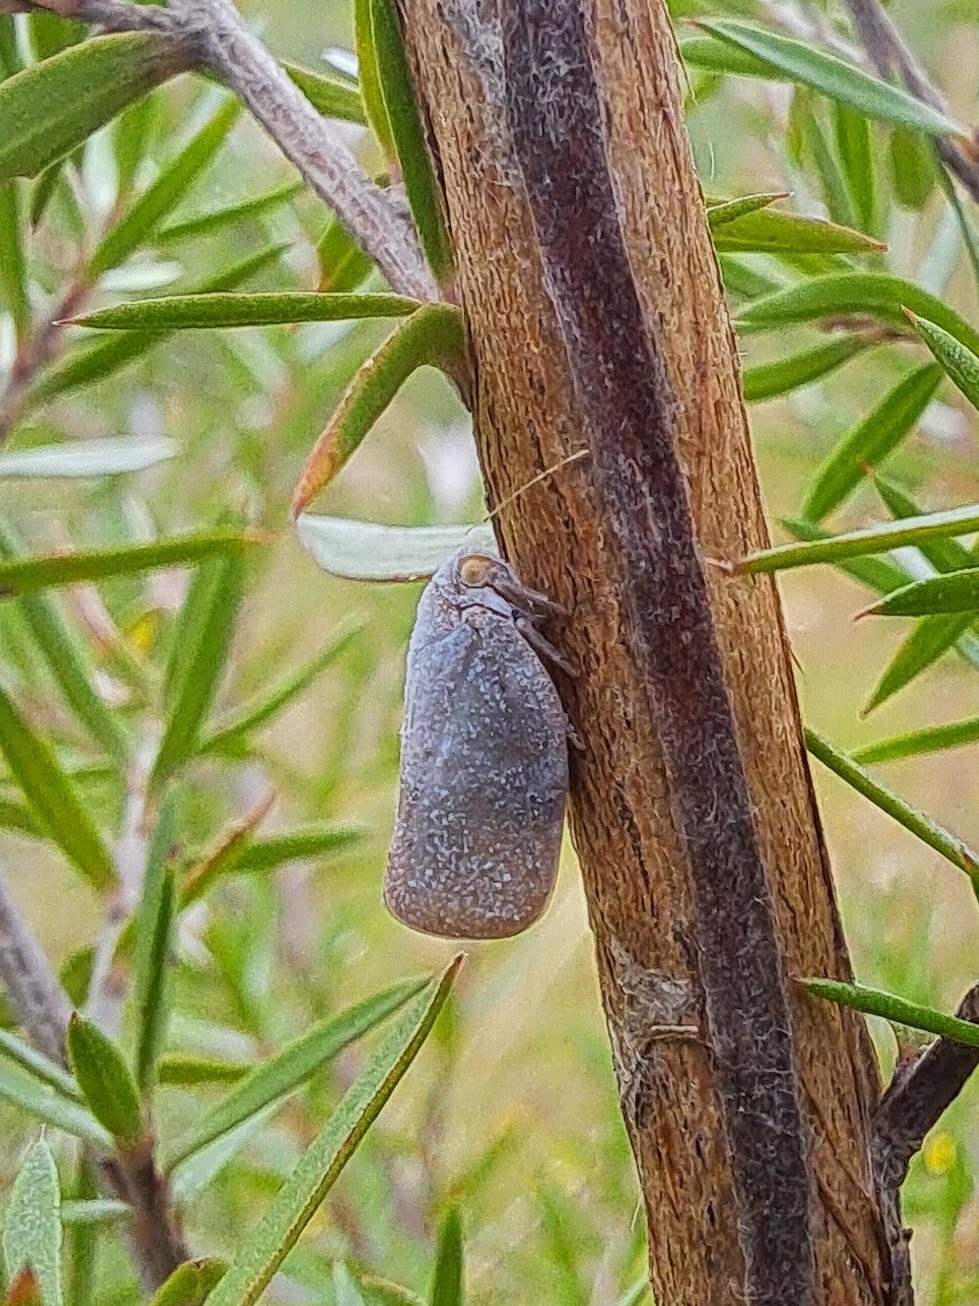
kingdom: Animalia
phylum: Arthropoda
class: Insecta
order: Hemiptera
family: Flatidae
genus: Anzora
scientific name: Anzora unicolor
